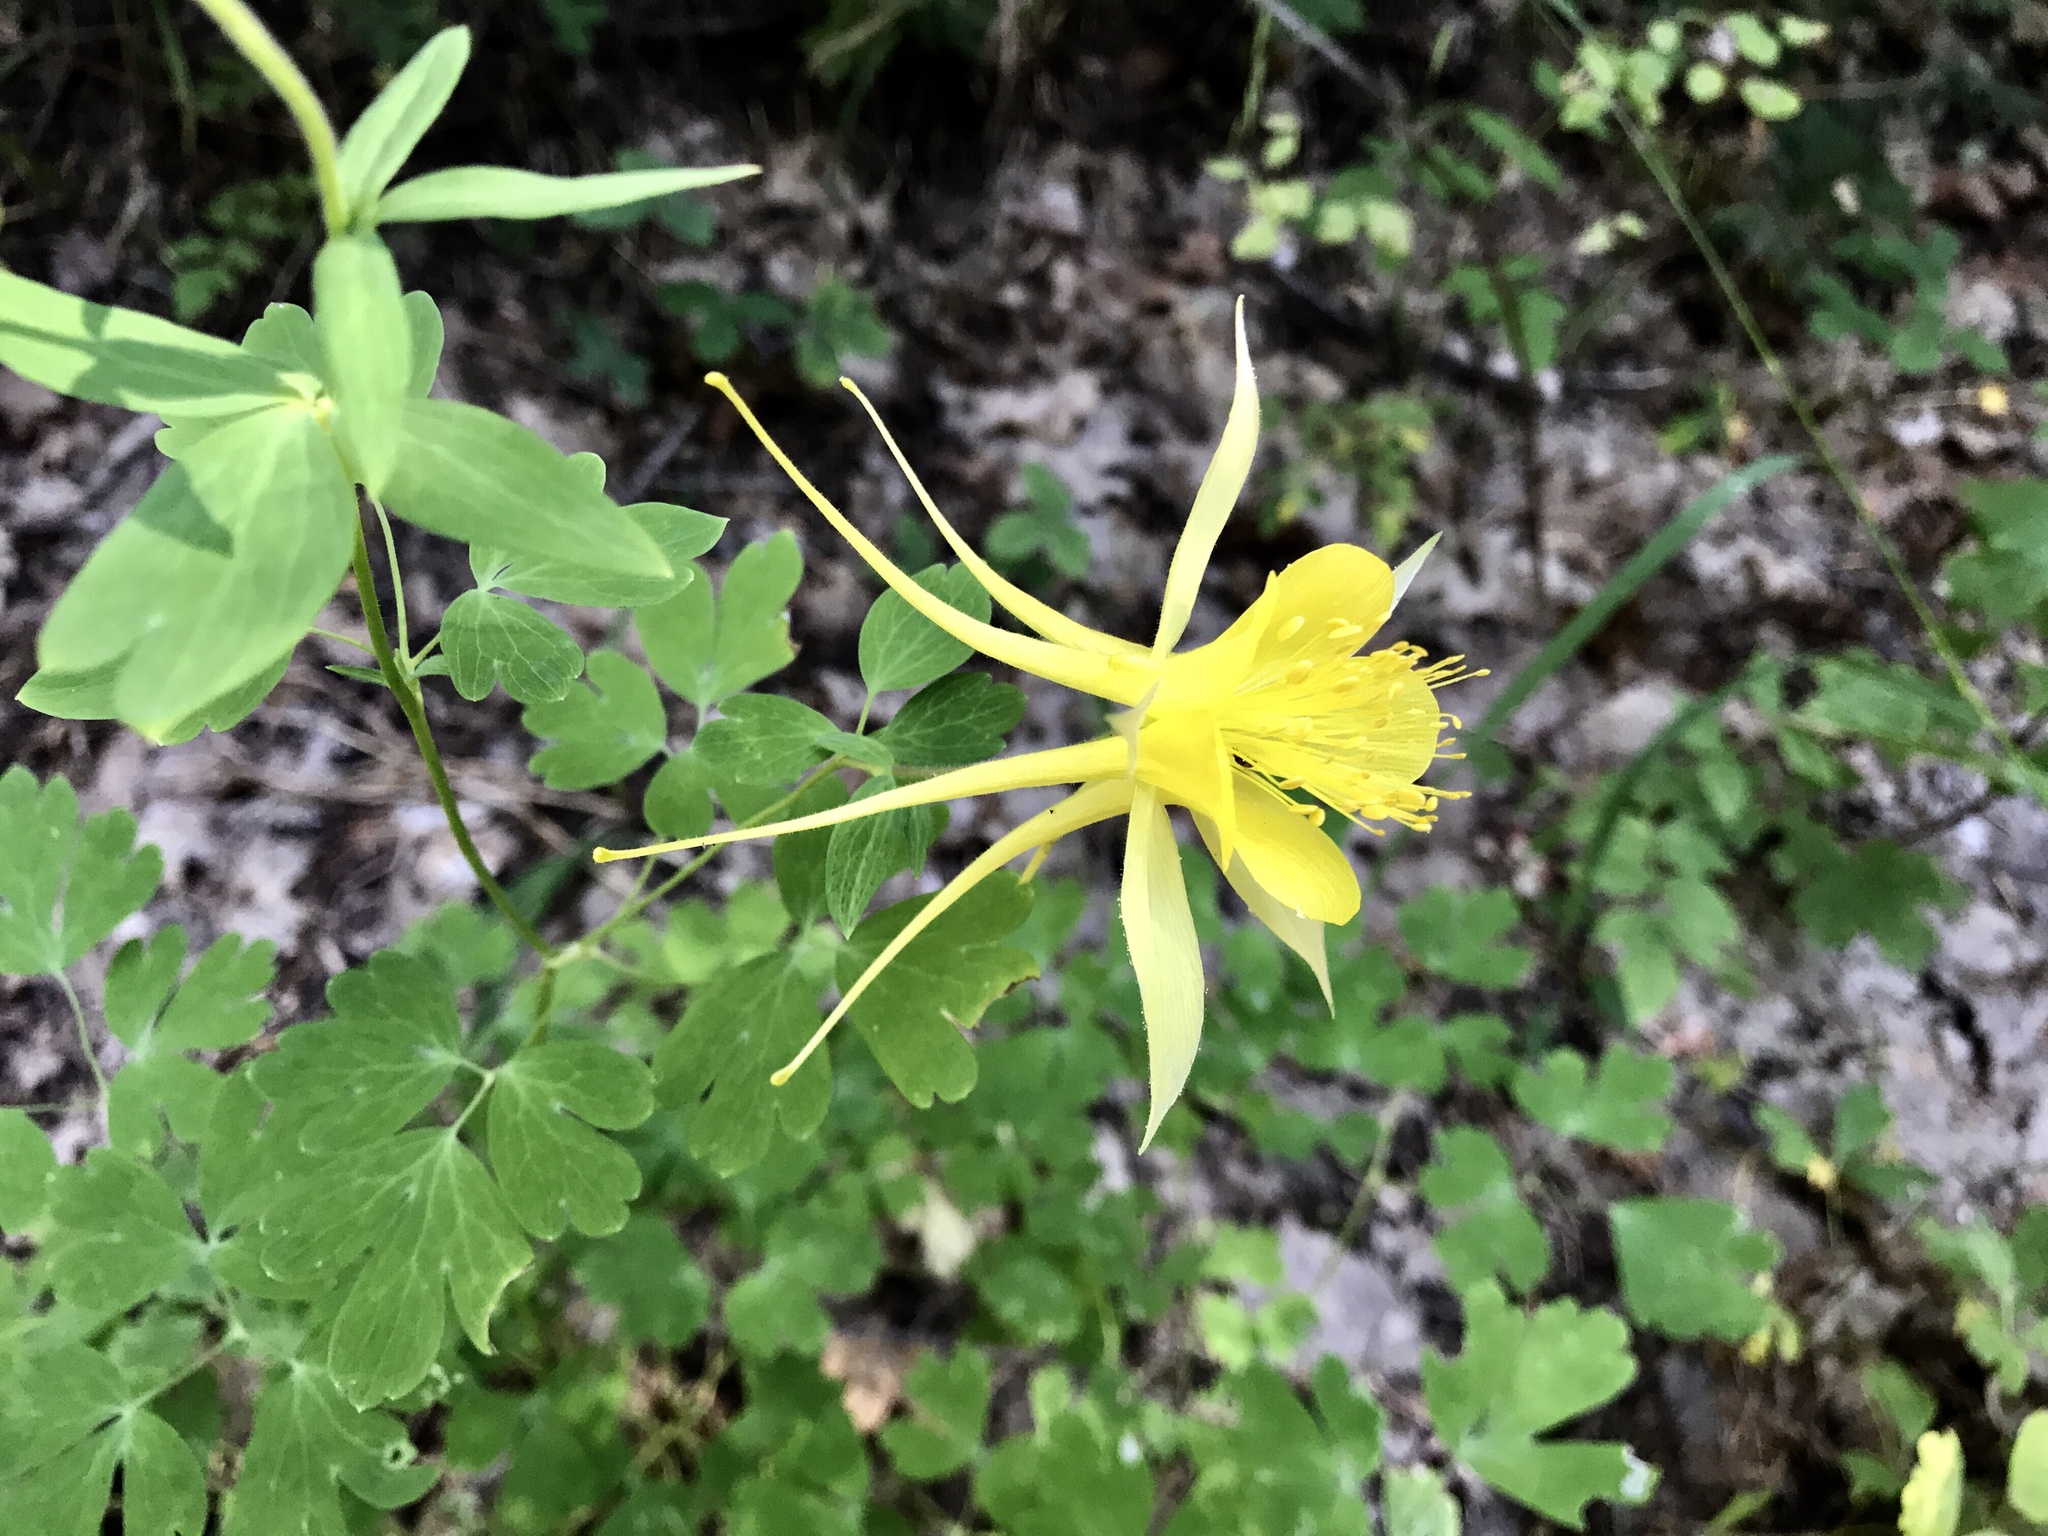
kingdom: Plantae
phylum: Tracheophyta
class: Magnoliopsida
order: Ranunculales
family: Ranunculaceae
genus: Aquilegia
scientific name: Aquilegia chrysantha
